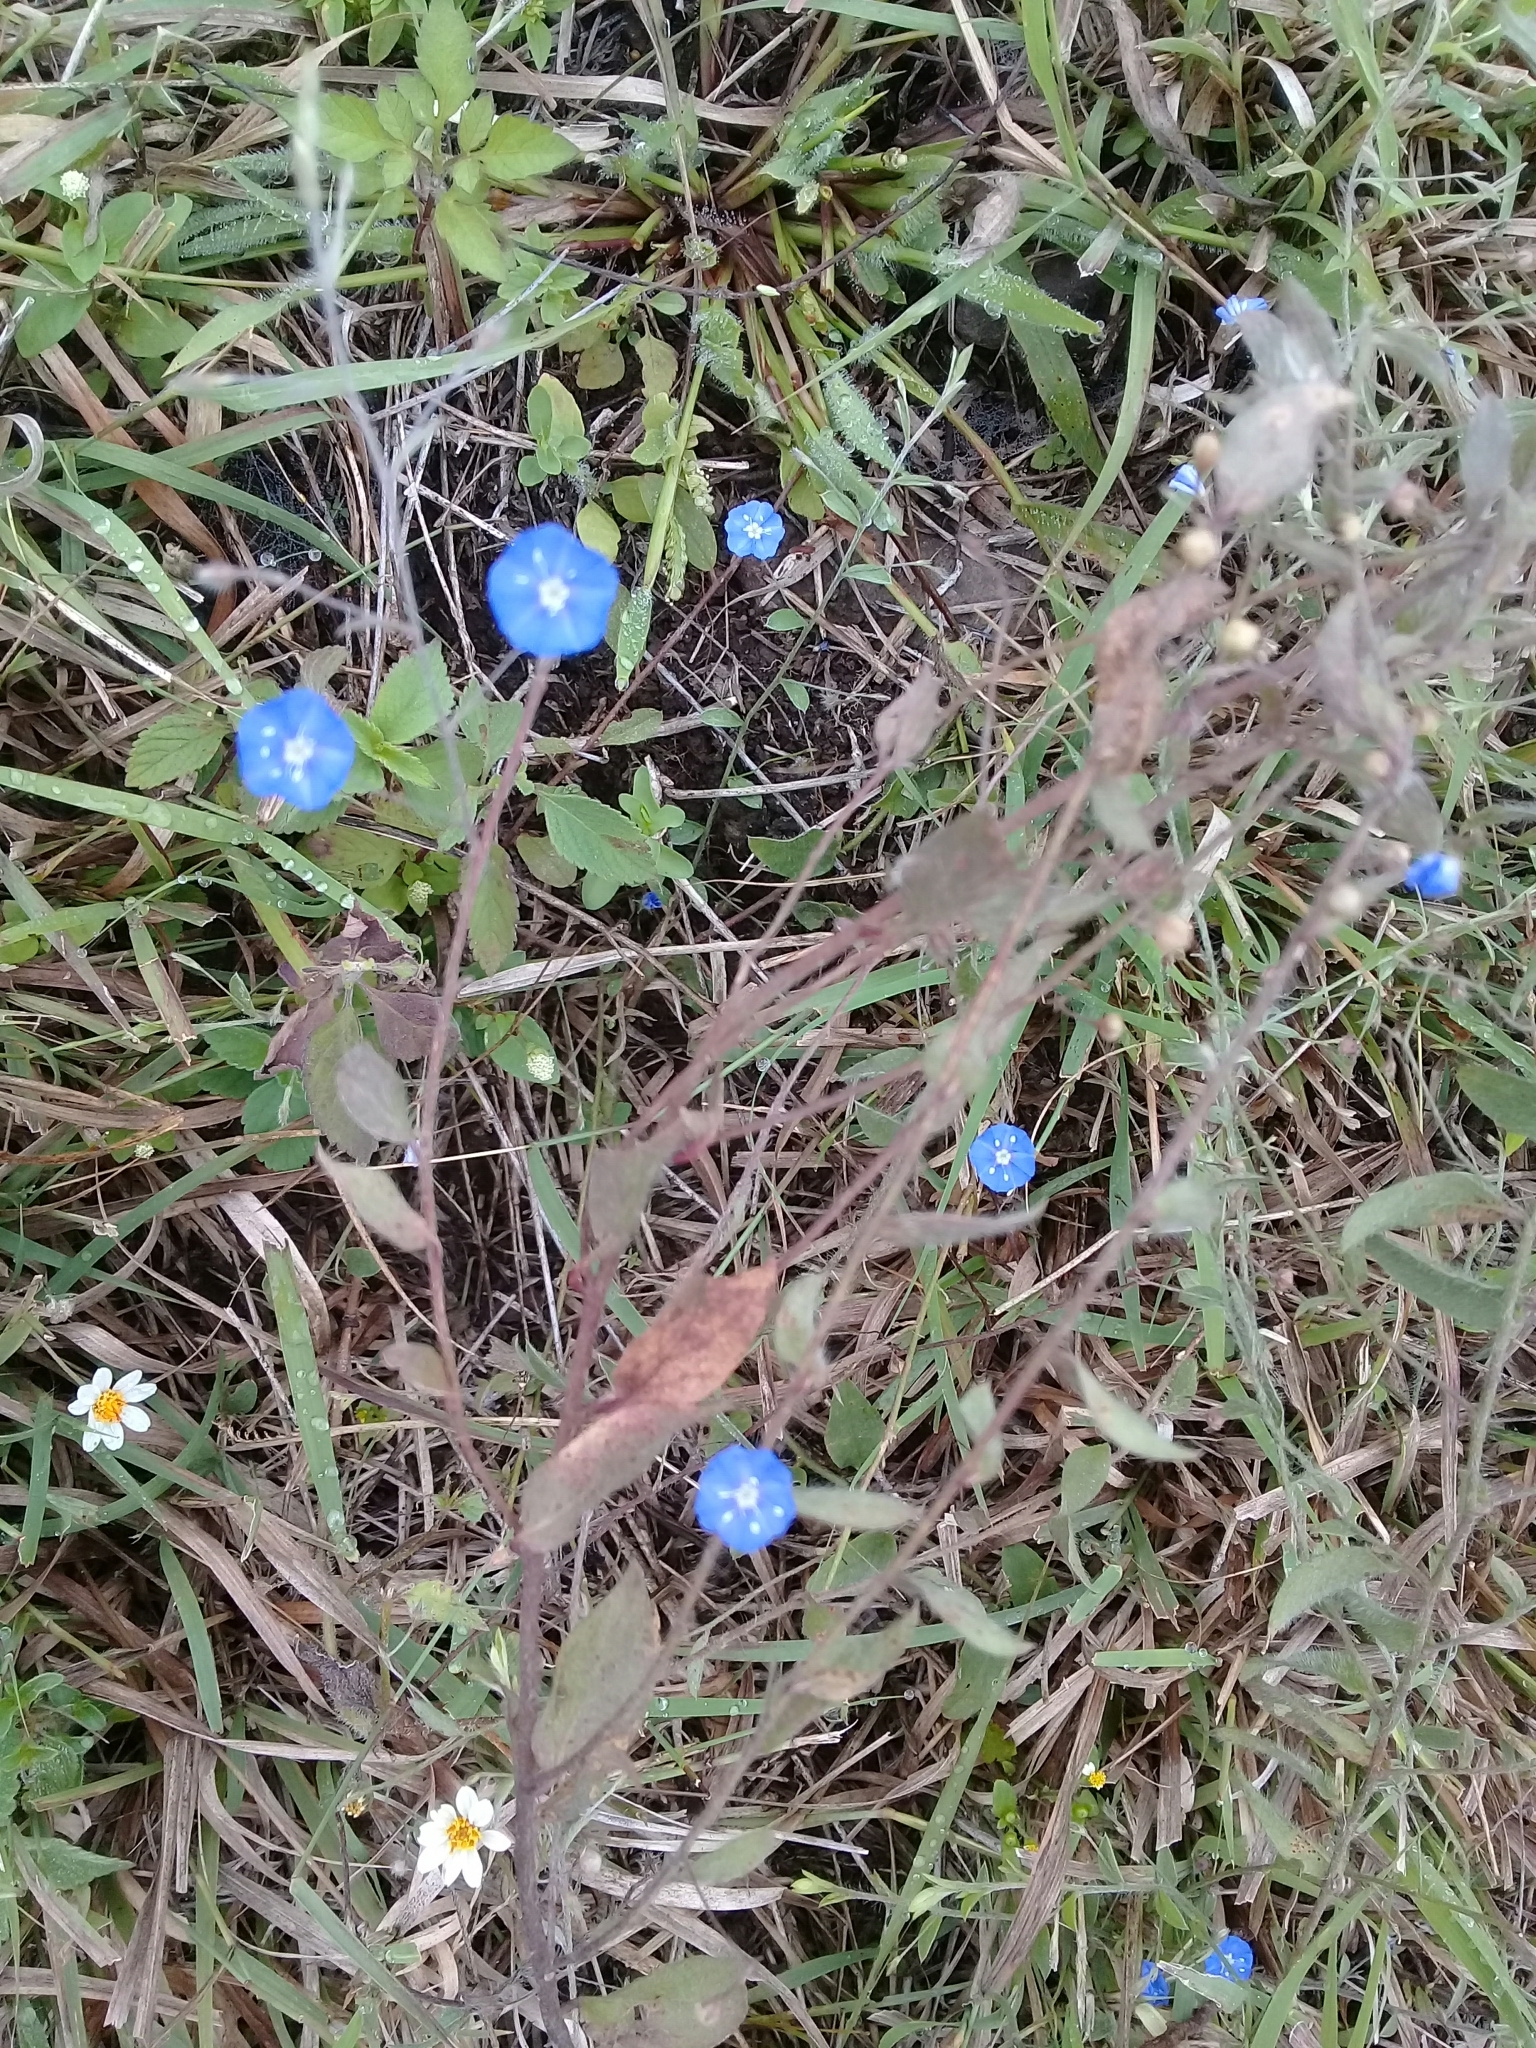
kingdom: Plantae
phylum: Tracheophyta
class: Magnoliopsida
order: Solanales
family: Convolvulaceae
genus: Evolvulus
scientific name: Evolvulus alsinoides
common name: Slender dwarf morning-glory
